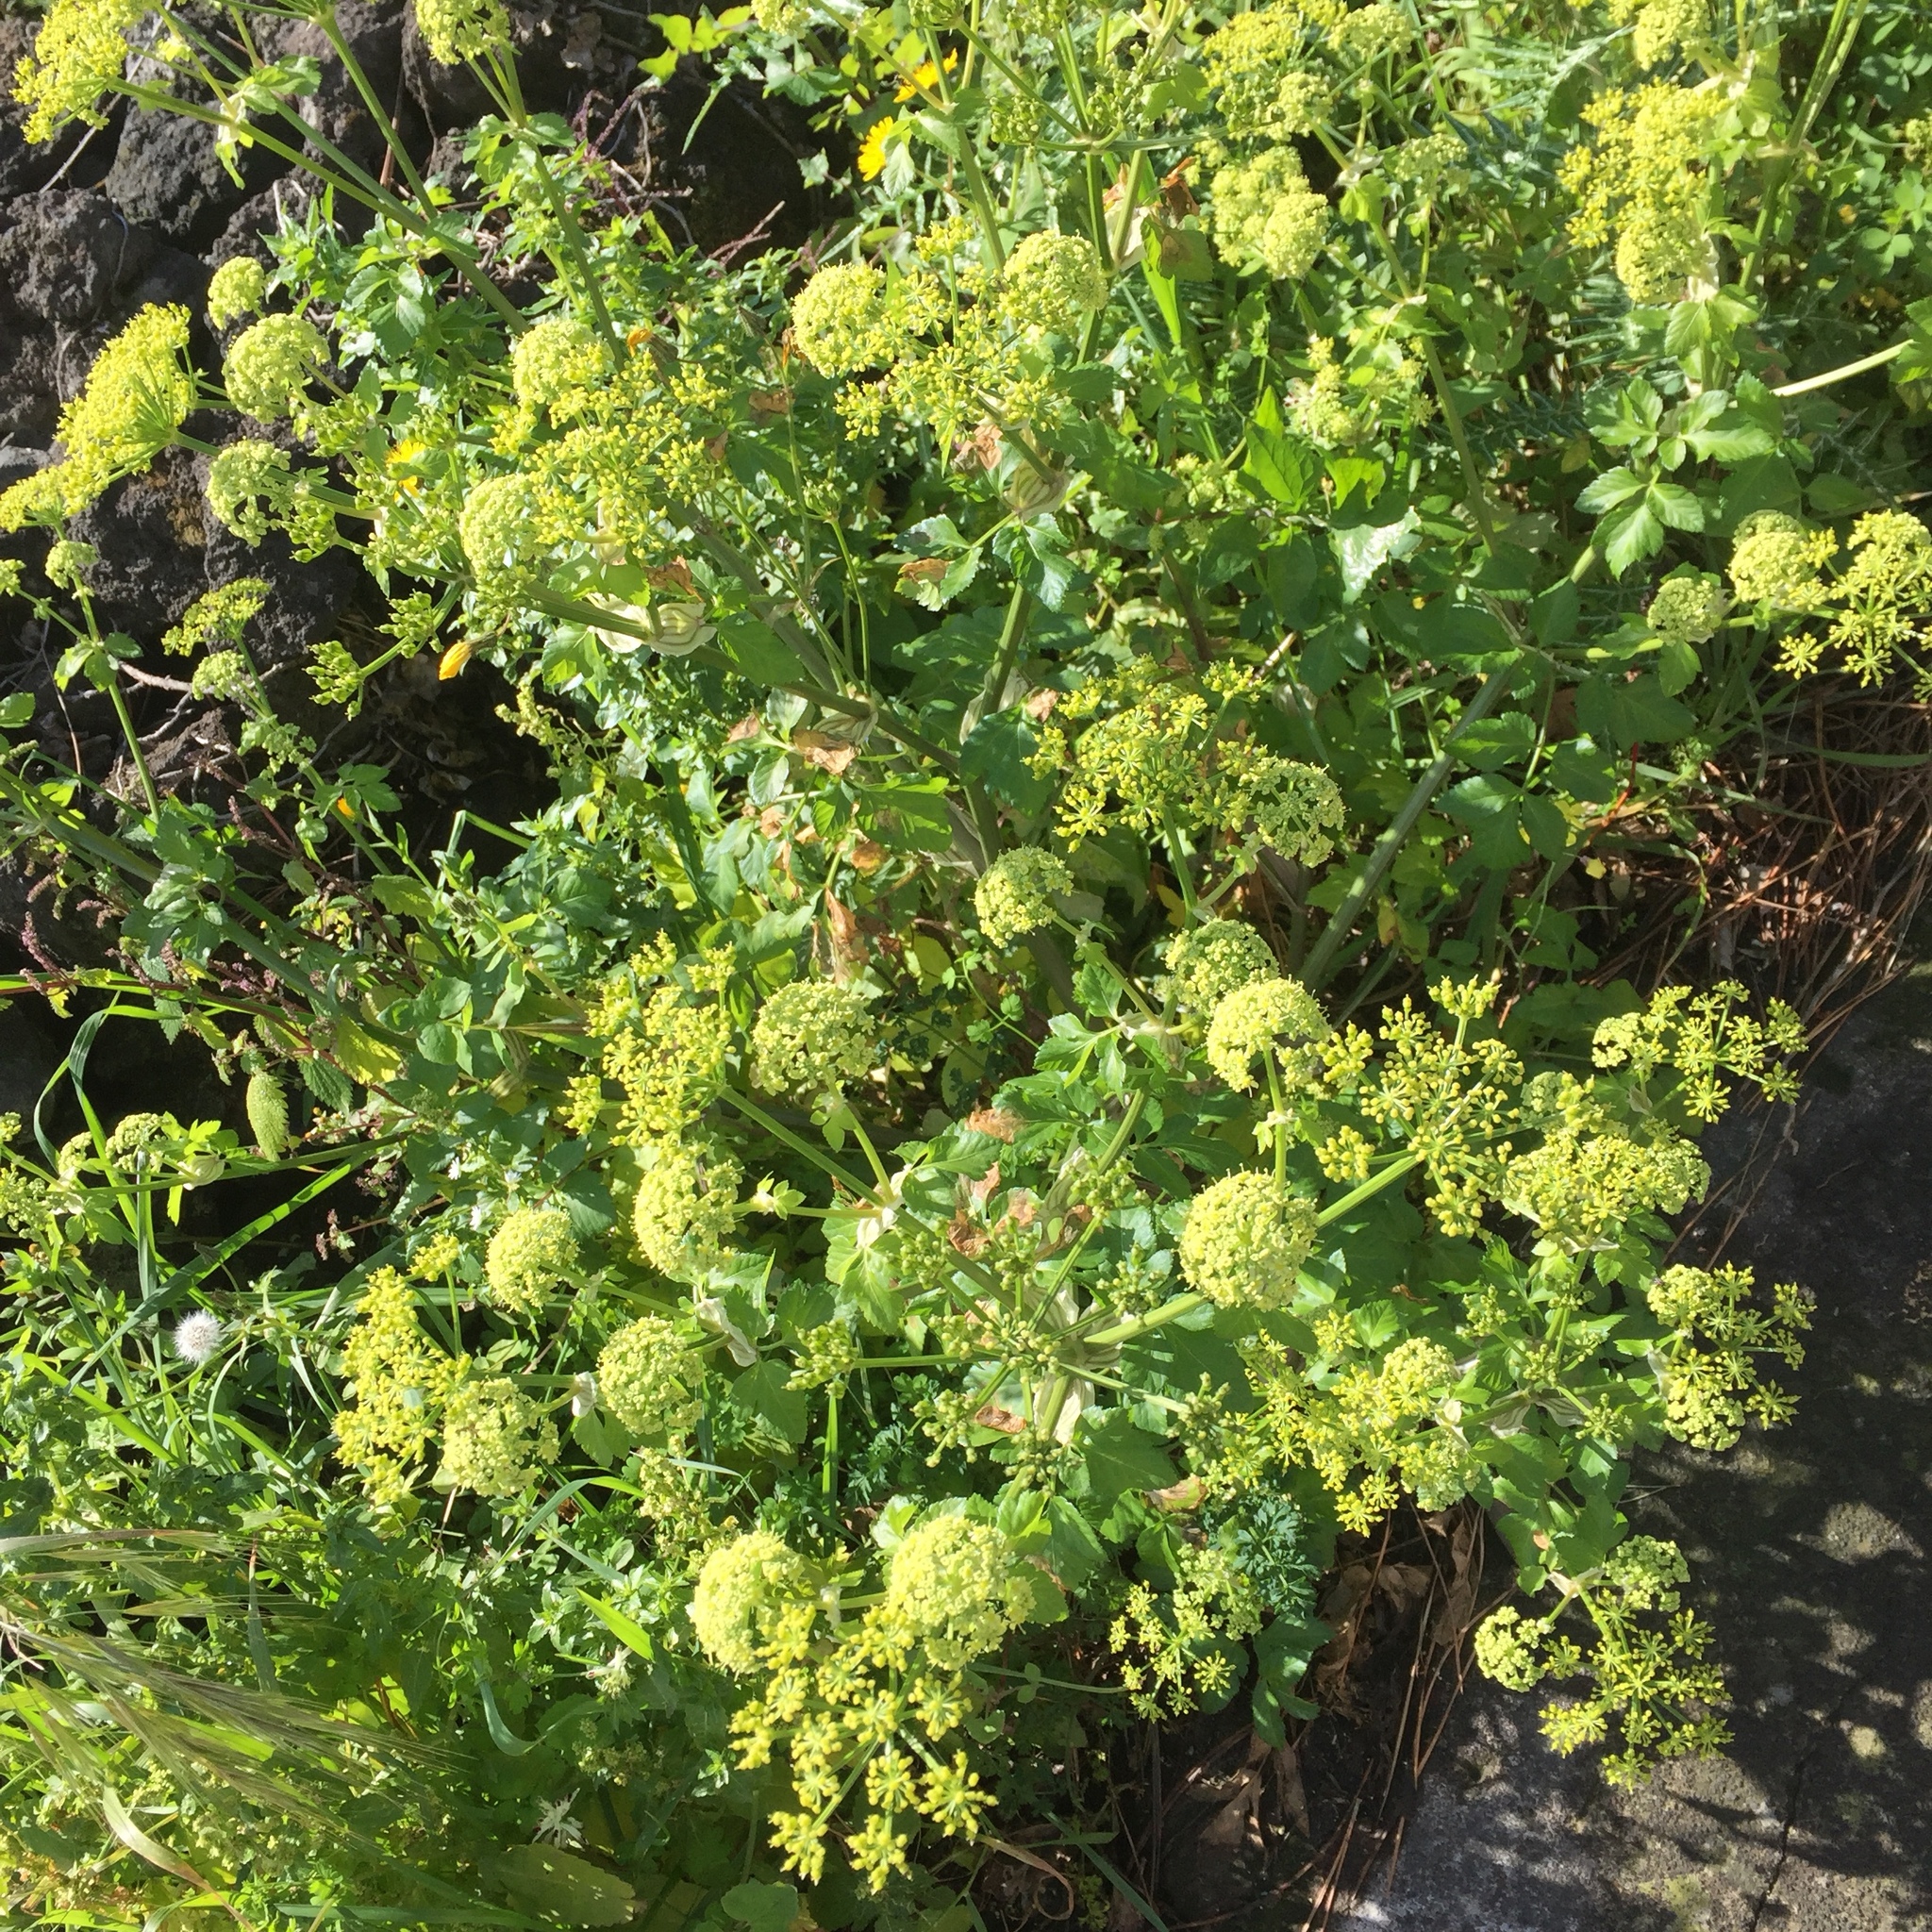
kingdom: Plantae
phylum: Tracheophyta
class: Magnoliopsida
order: Apiales
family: Apiaceae
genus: Smyrnium
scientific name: Smyrnium olusatrum
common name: Alexanders
